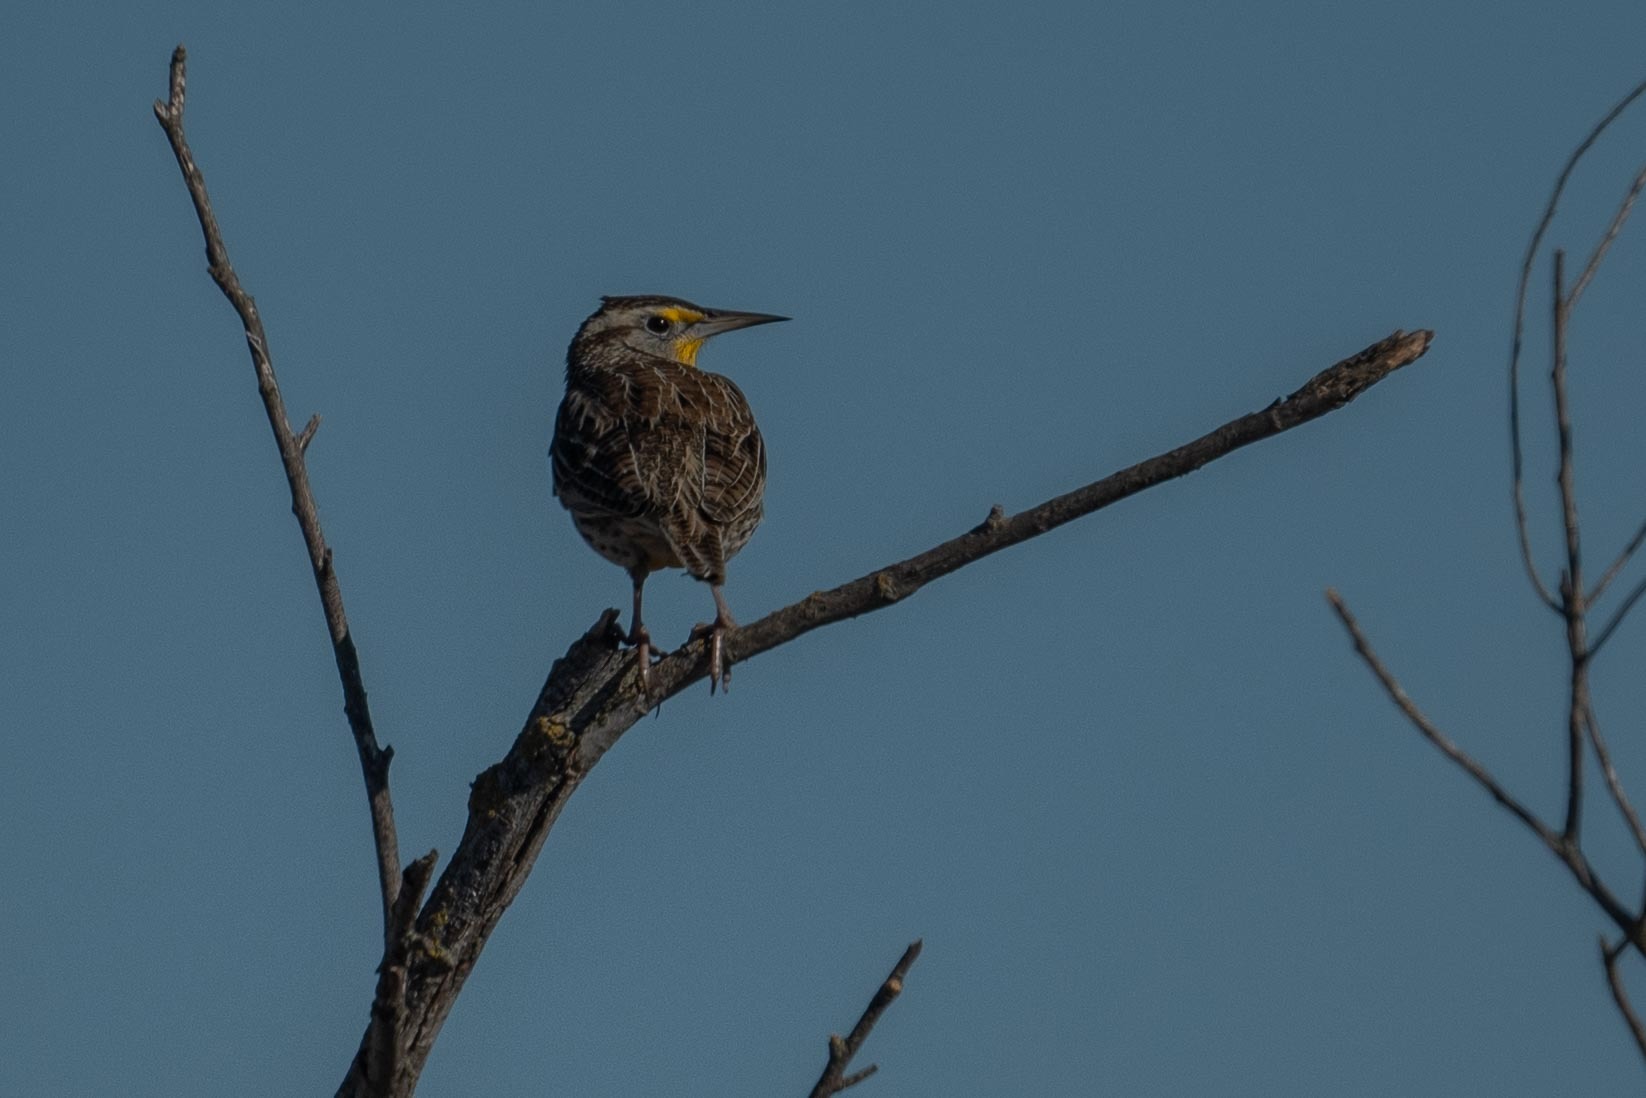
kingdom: Animalia
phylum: Chordata
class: Aves
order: Passeriformes
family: Icteridae
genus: Sturnella
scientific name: Sturnella neglecta
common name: Western meadowlark
